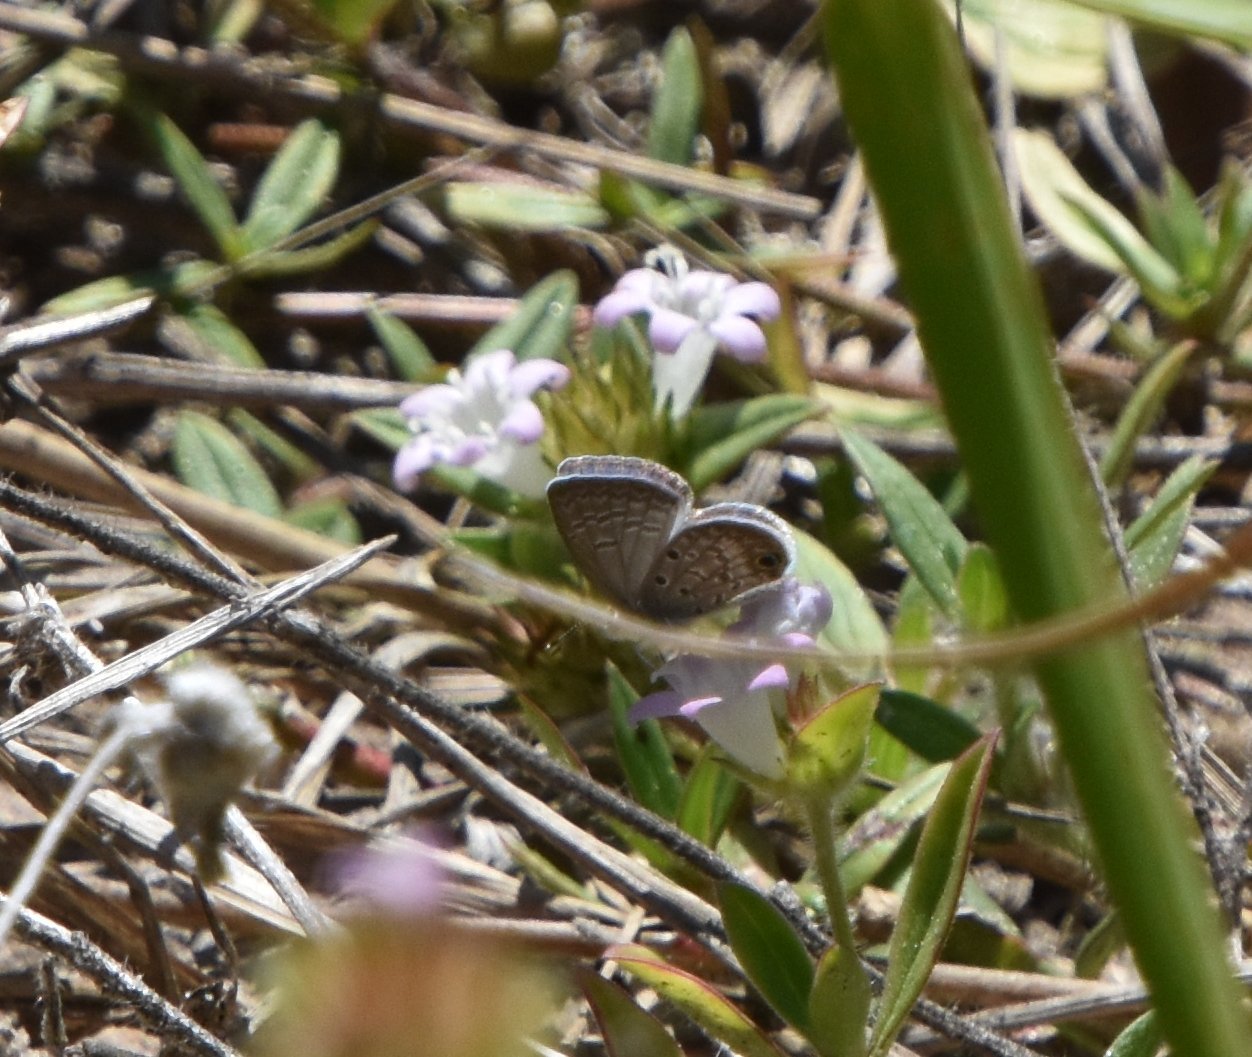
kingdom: Animalia
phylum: Arthropoda
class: Insecta
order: Lepidoptera
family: Lycaenidae
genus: Hemiargus
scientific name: Hemiargus ceraunus
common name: Ceraunus blue
